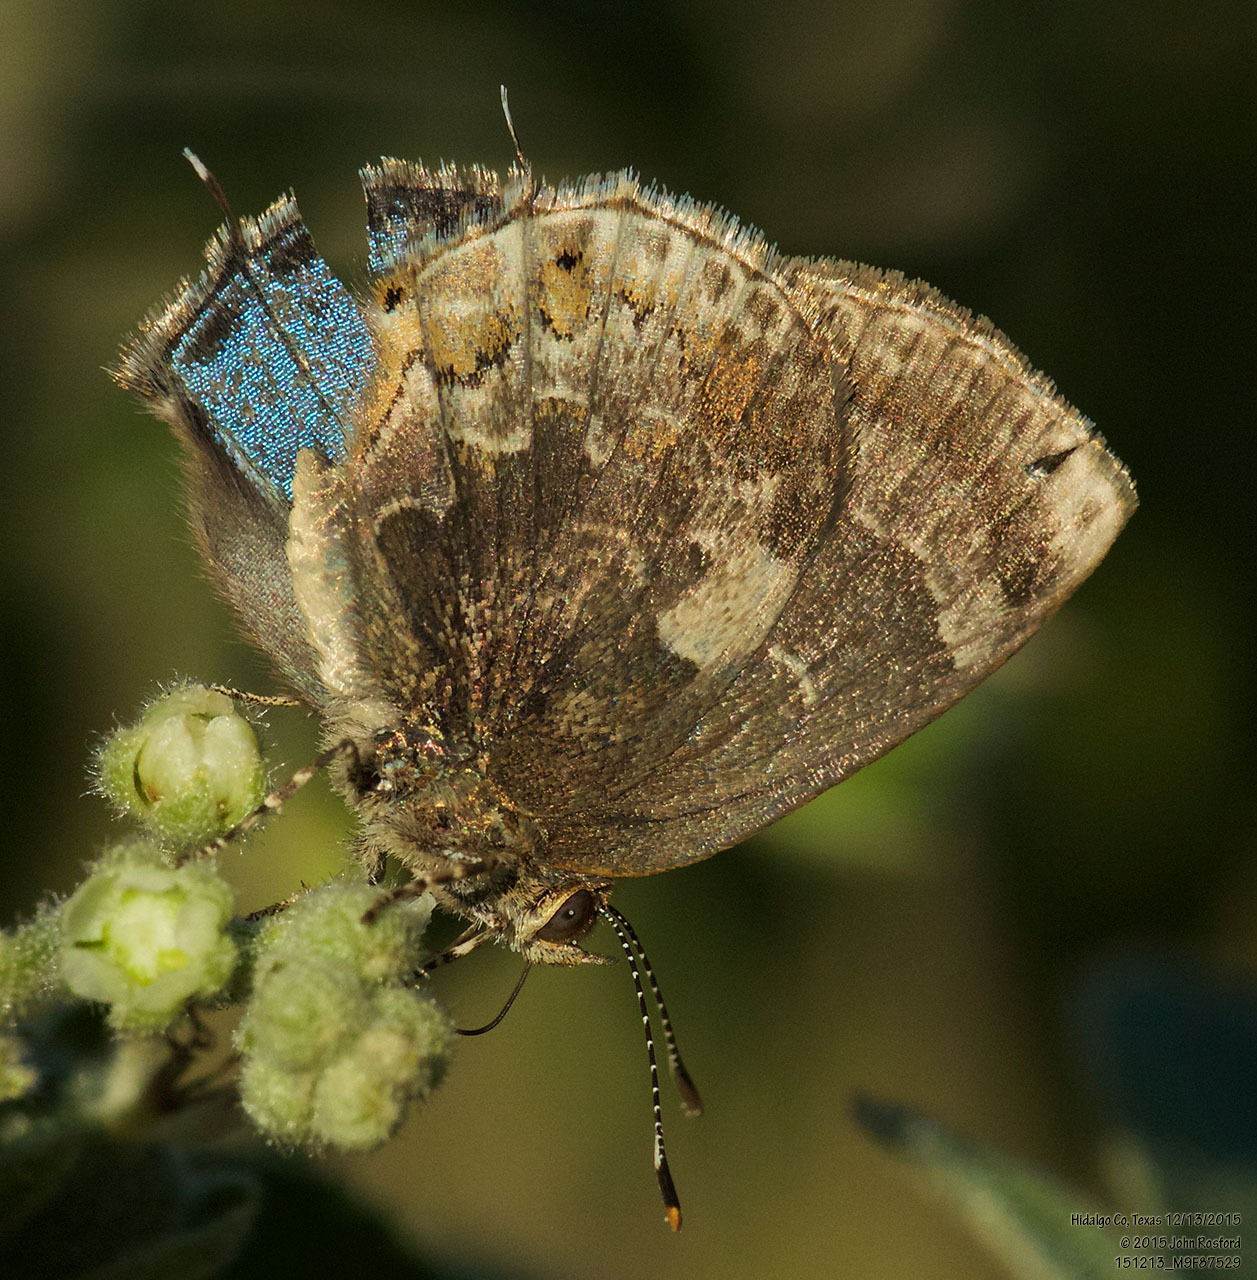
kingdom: Animalia
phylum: Arthropoda
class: Insecta
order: Lepidoptera
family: Lycaenidae
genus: Ocaria
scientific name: Ocaria ocrisia
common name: Black hairstreak
